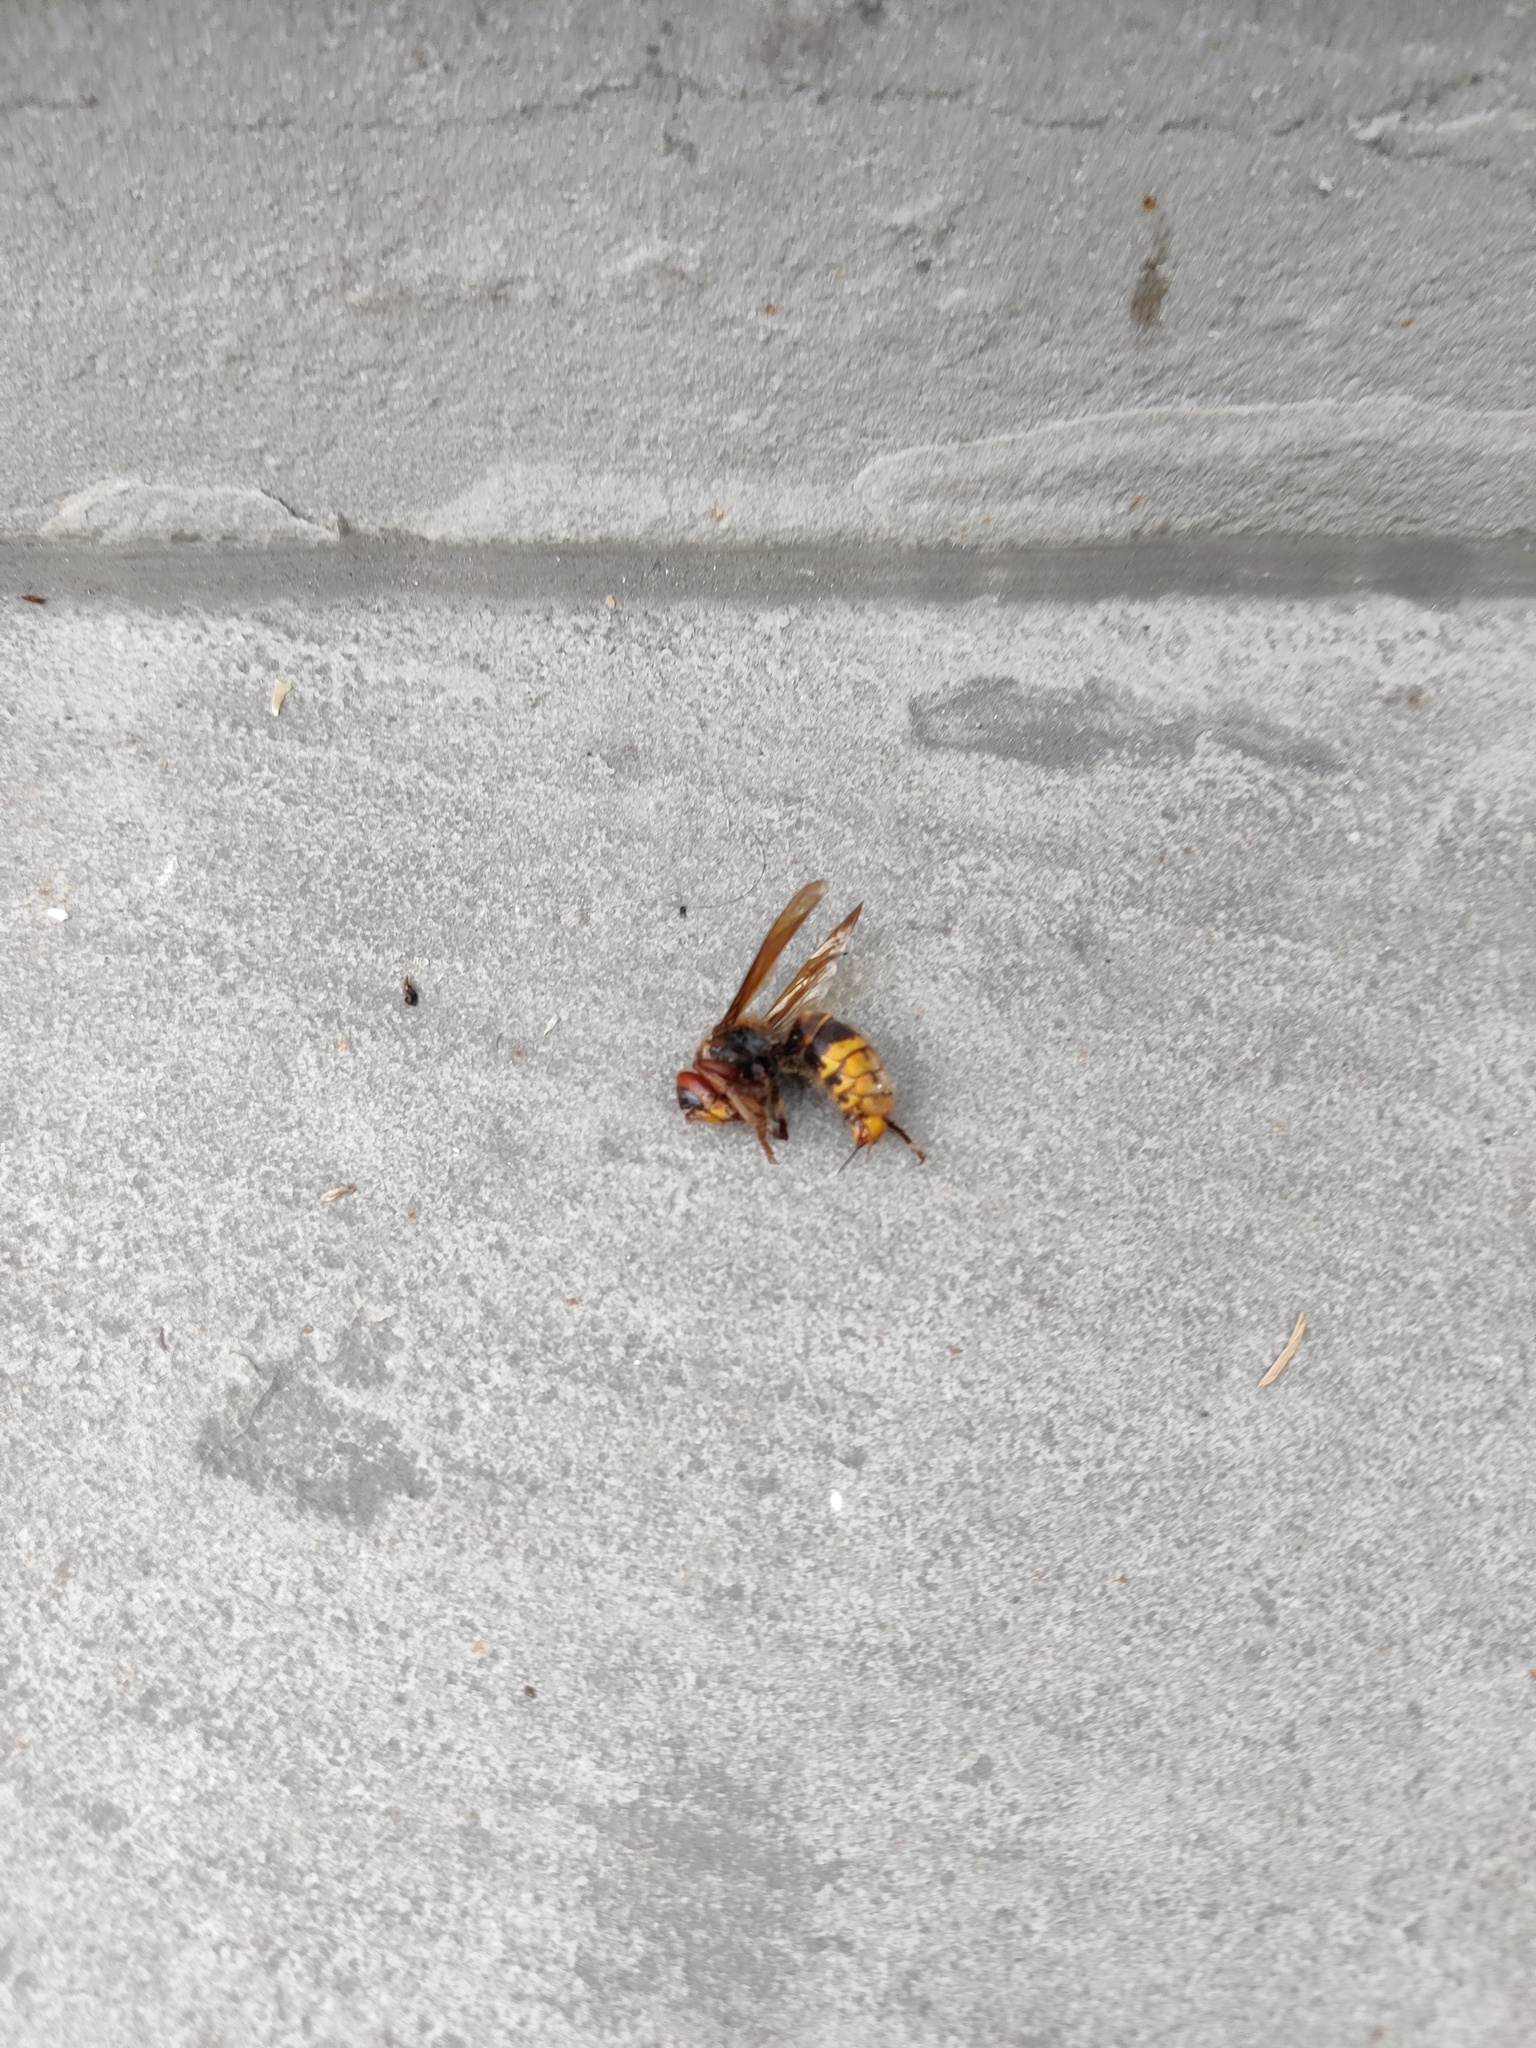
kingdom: Animalia
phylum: Arthropoda
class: Insecta
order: Hymenoptera
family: Vespidae
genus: Vespa
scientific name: Vespa crabro
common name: Hornet
